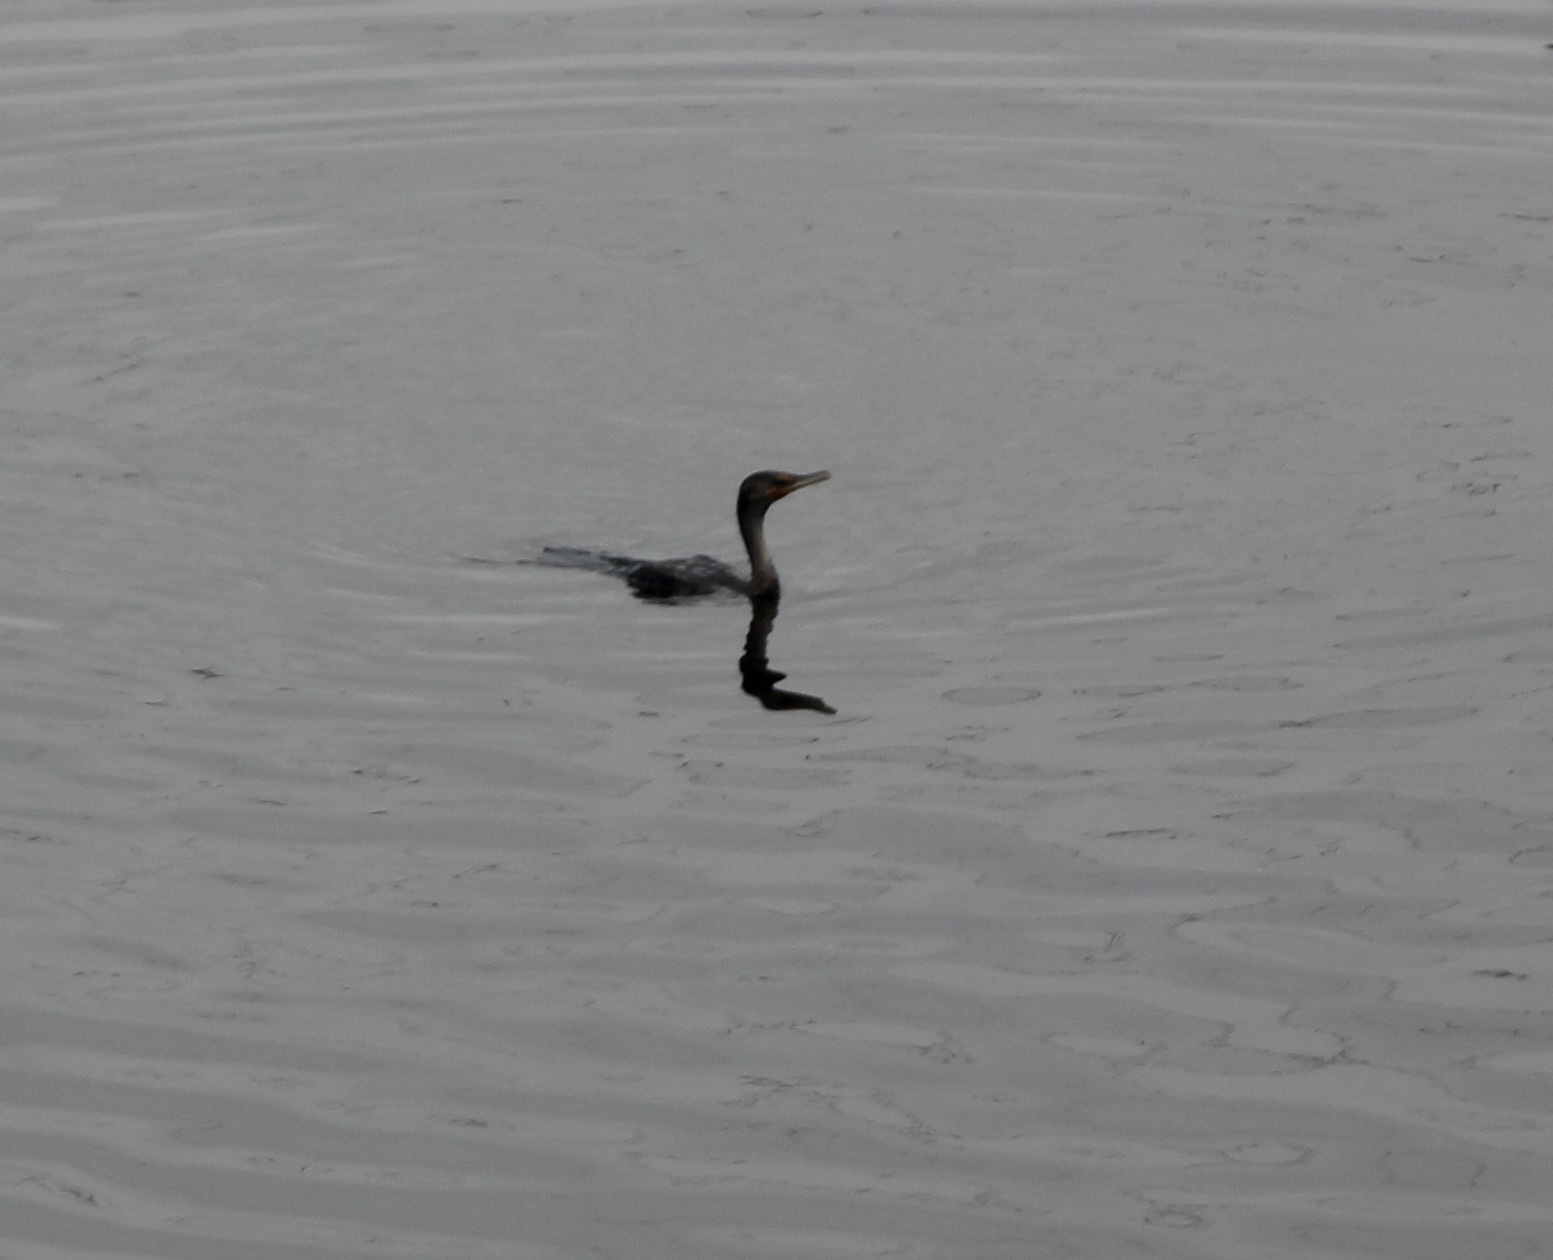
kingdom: Animalia
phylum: Chordata
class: Aves
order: Suliformes
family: Phalacrocoracidae
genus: Phalacrocorax
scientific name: Phalacrocorax auritus
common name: Double-crested cormorant
